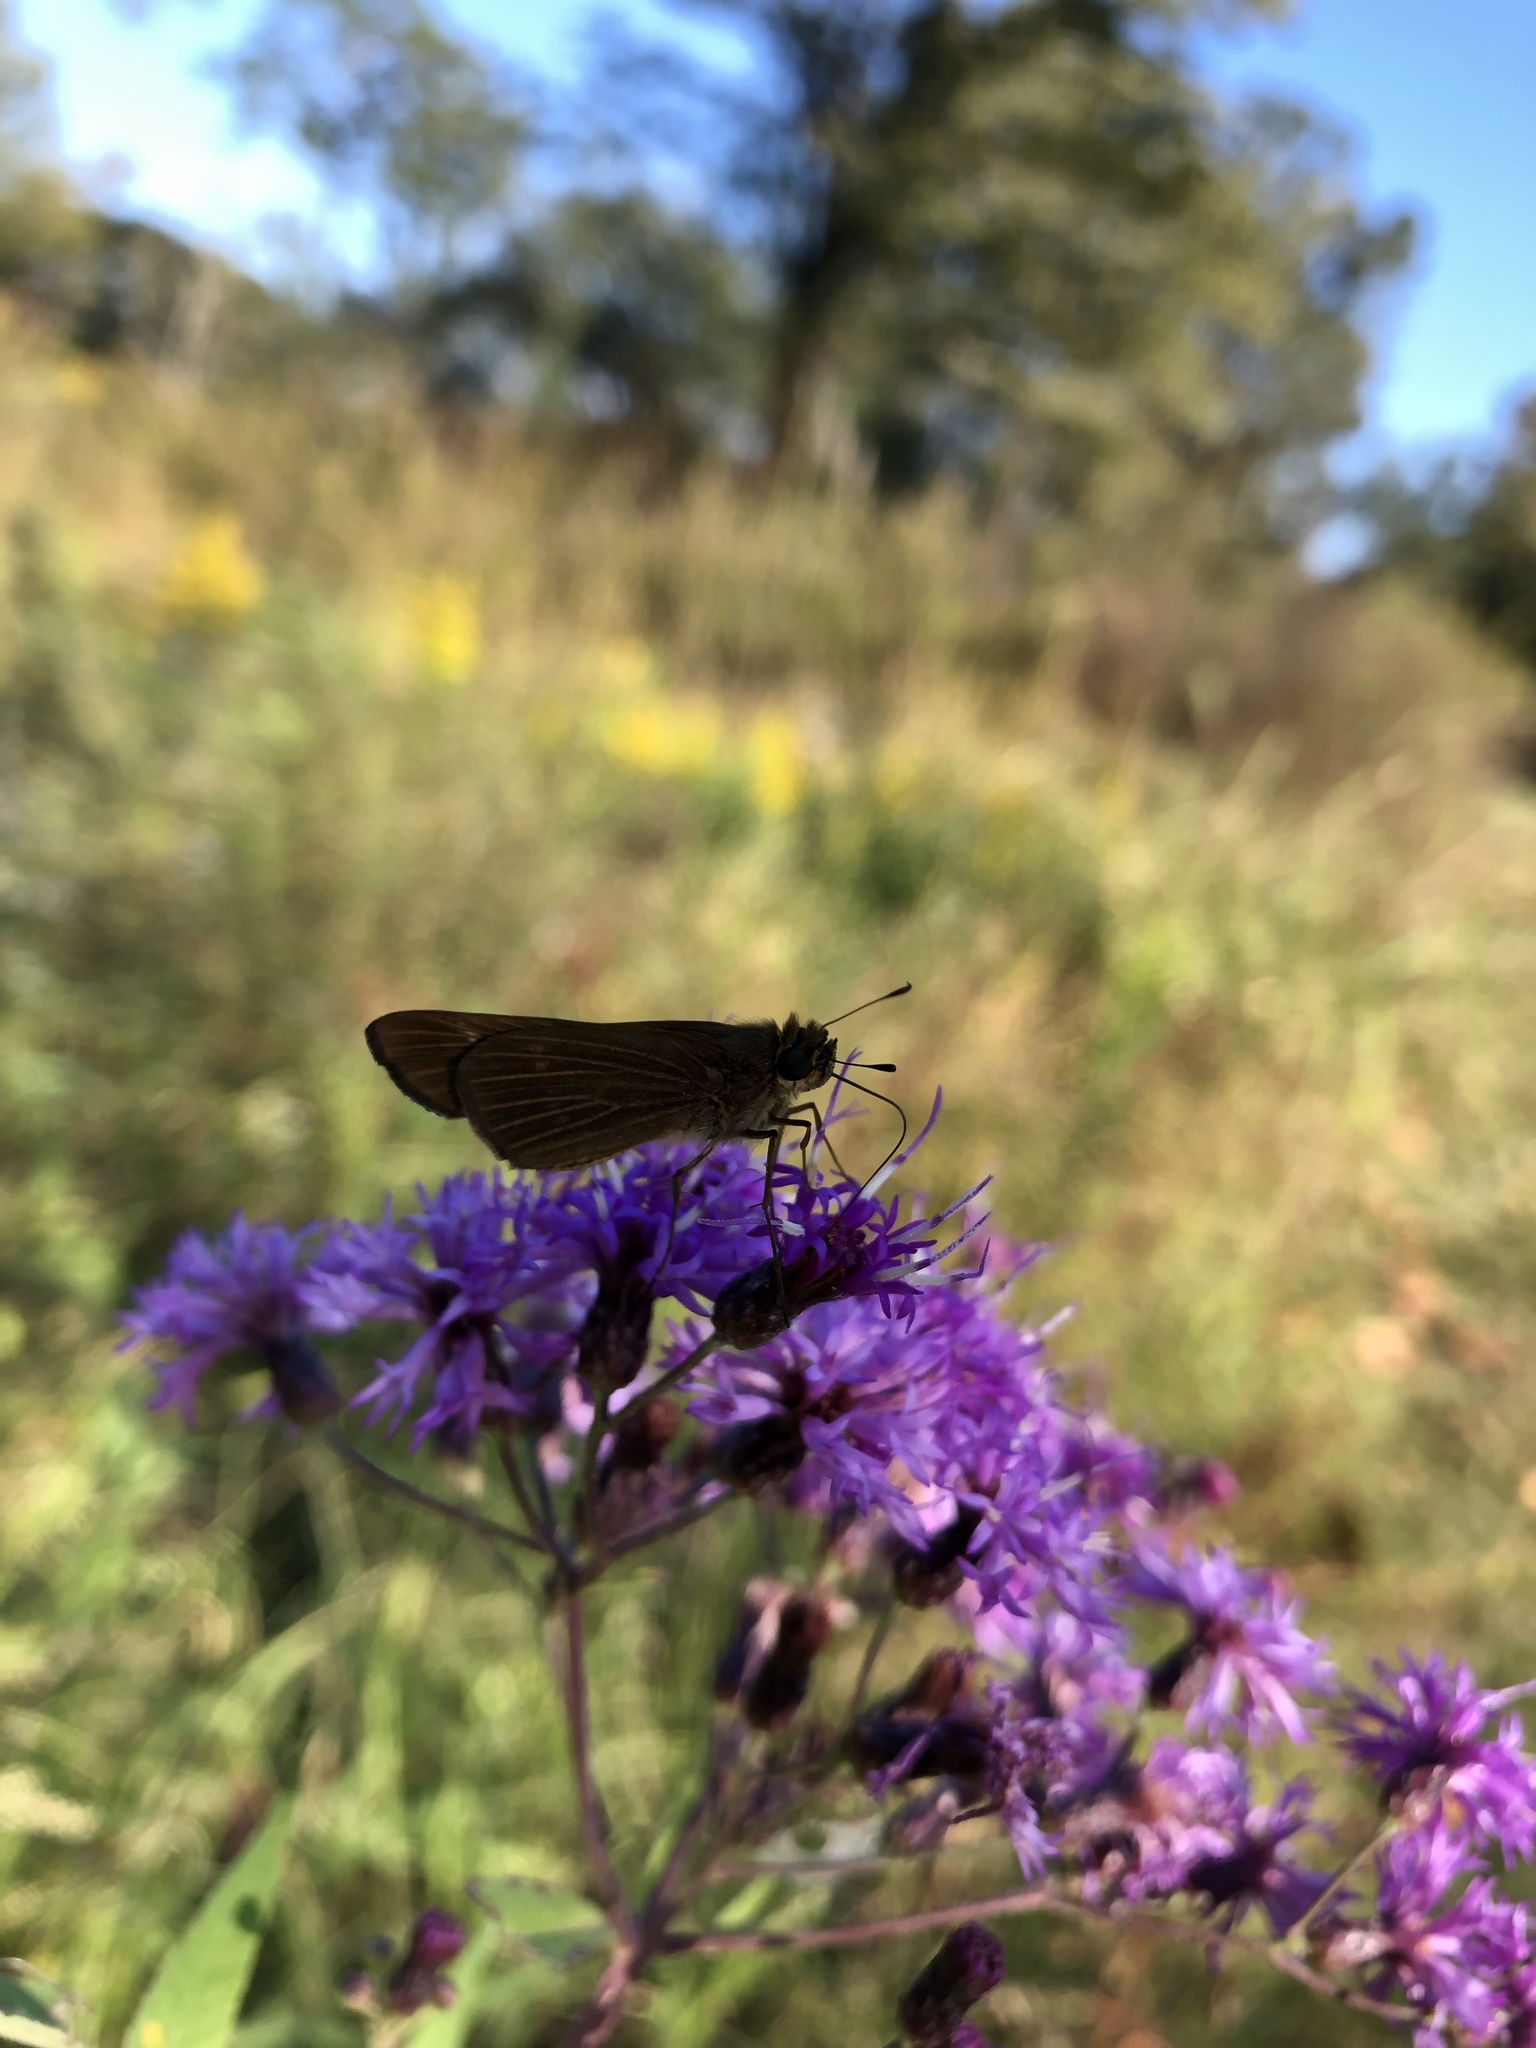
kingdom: Animalia
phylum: Arthropoda
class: Insecta
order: Lepidoptera
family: Hesperiidae
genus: Panoquina
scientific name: Panoquina ocola
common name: Ocola skipper
